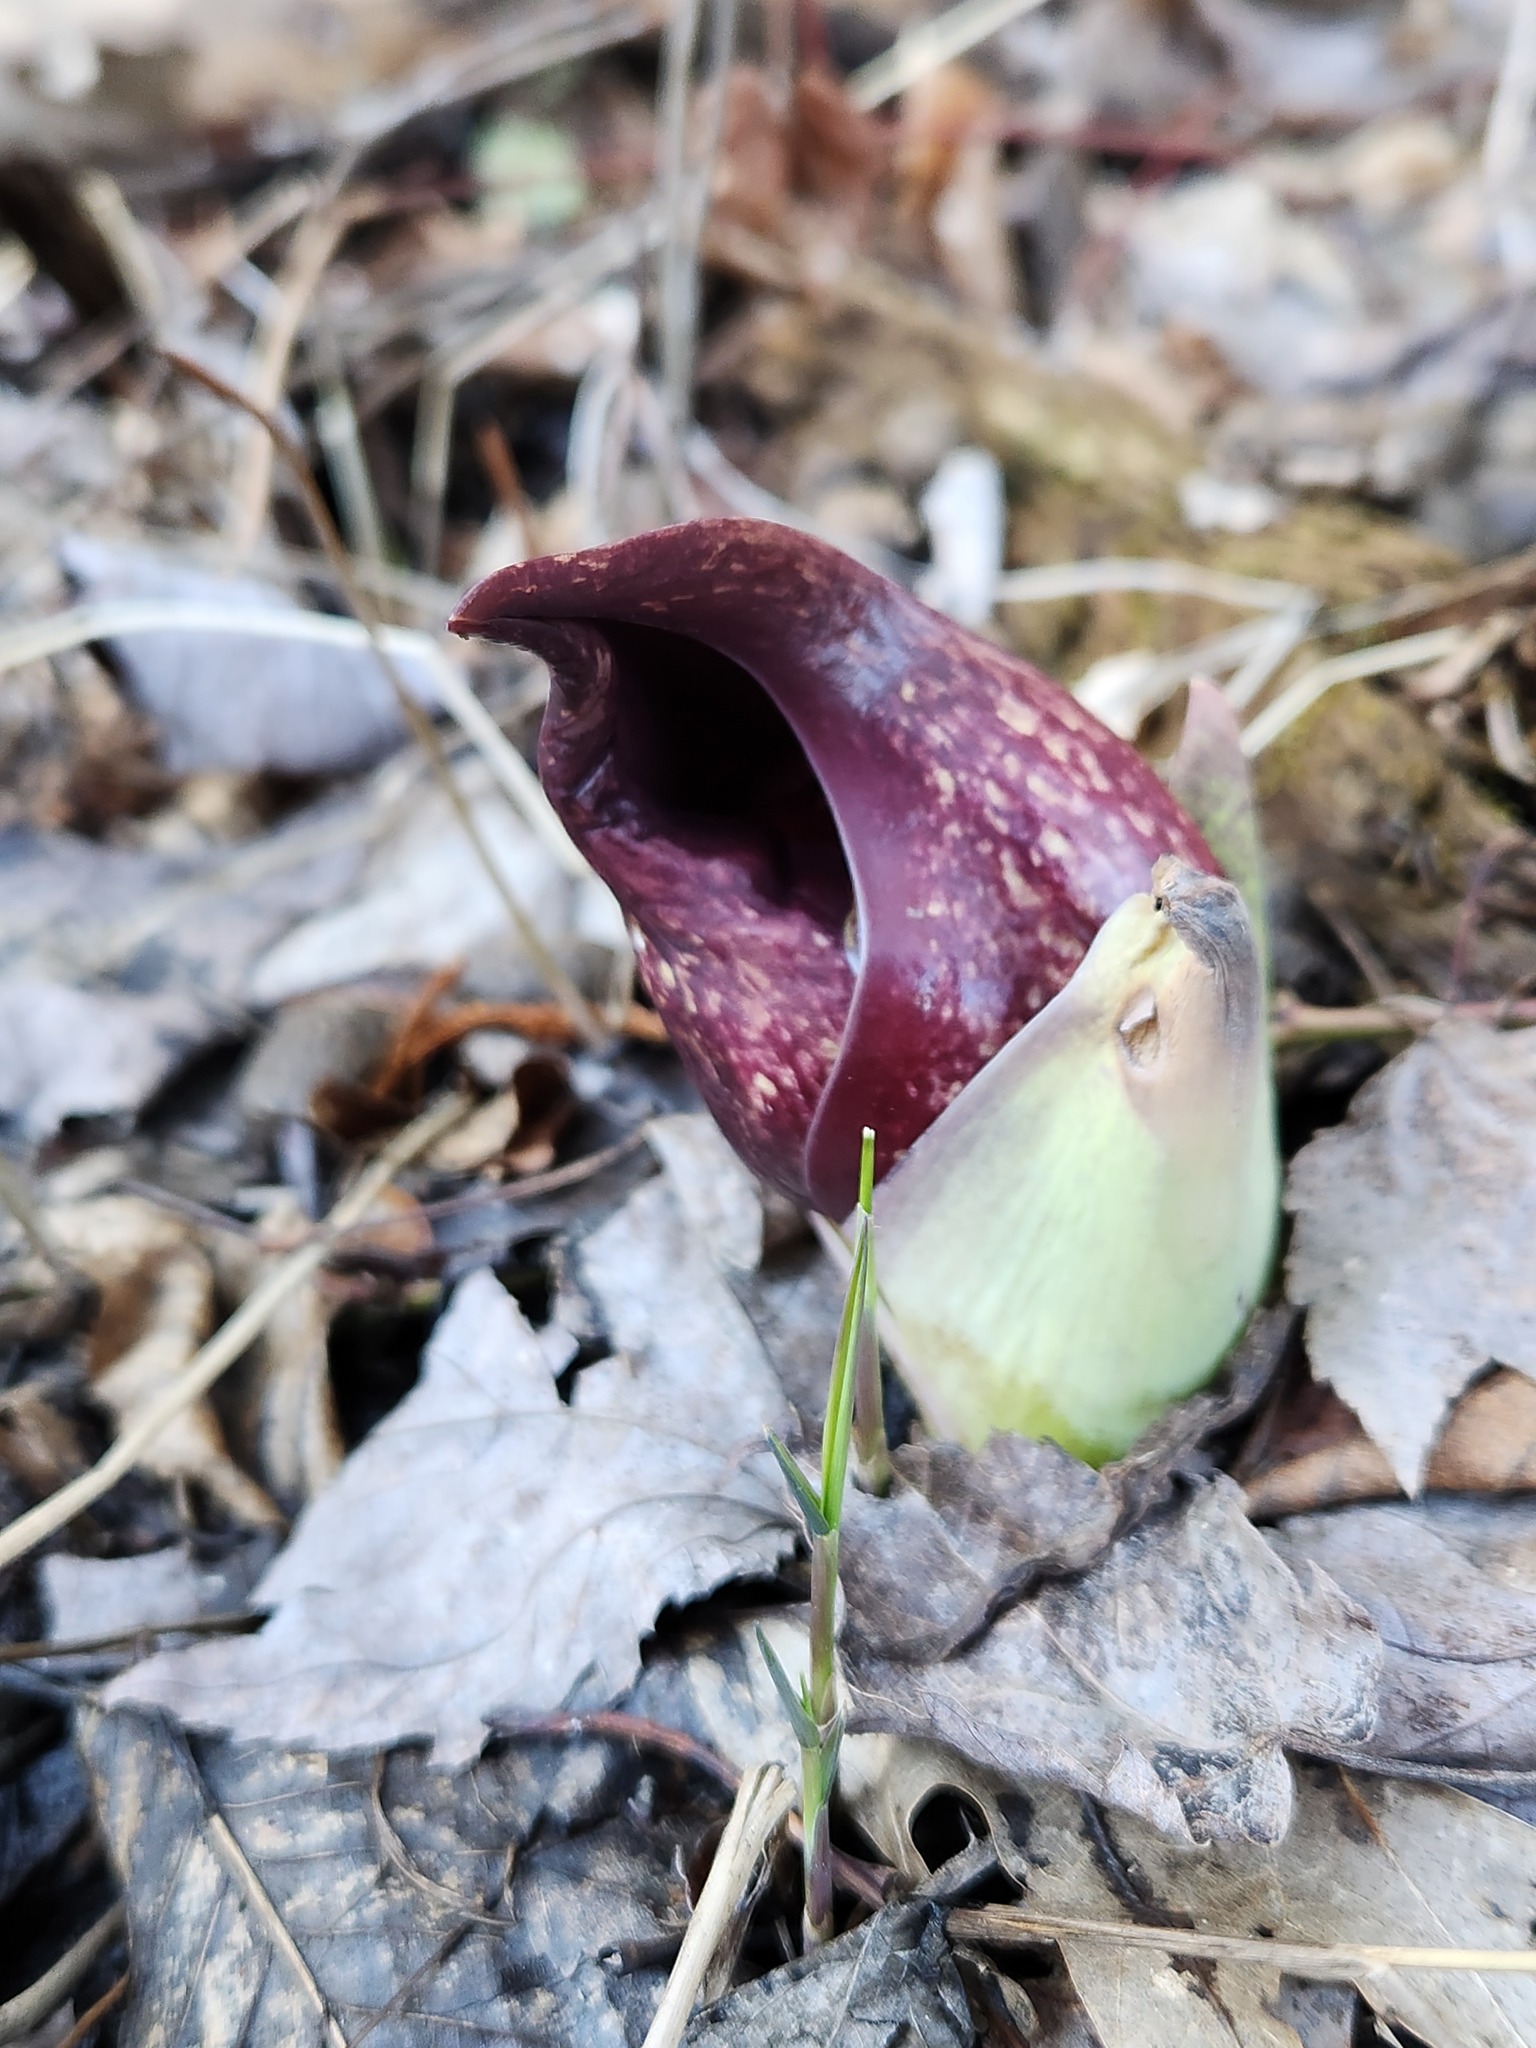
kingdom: Plantae
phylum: Tracheophyta
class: Liliopsida
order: Alismatales
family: Araceae
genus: Symplocarpus
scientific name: Symplocarpus foetidus
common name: Eastern skunk cabbage
